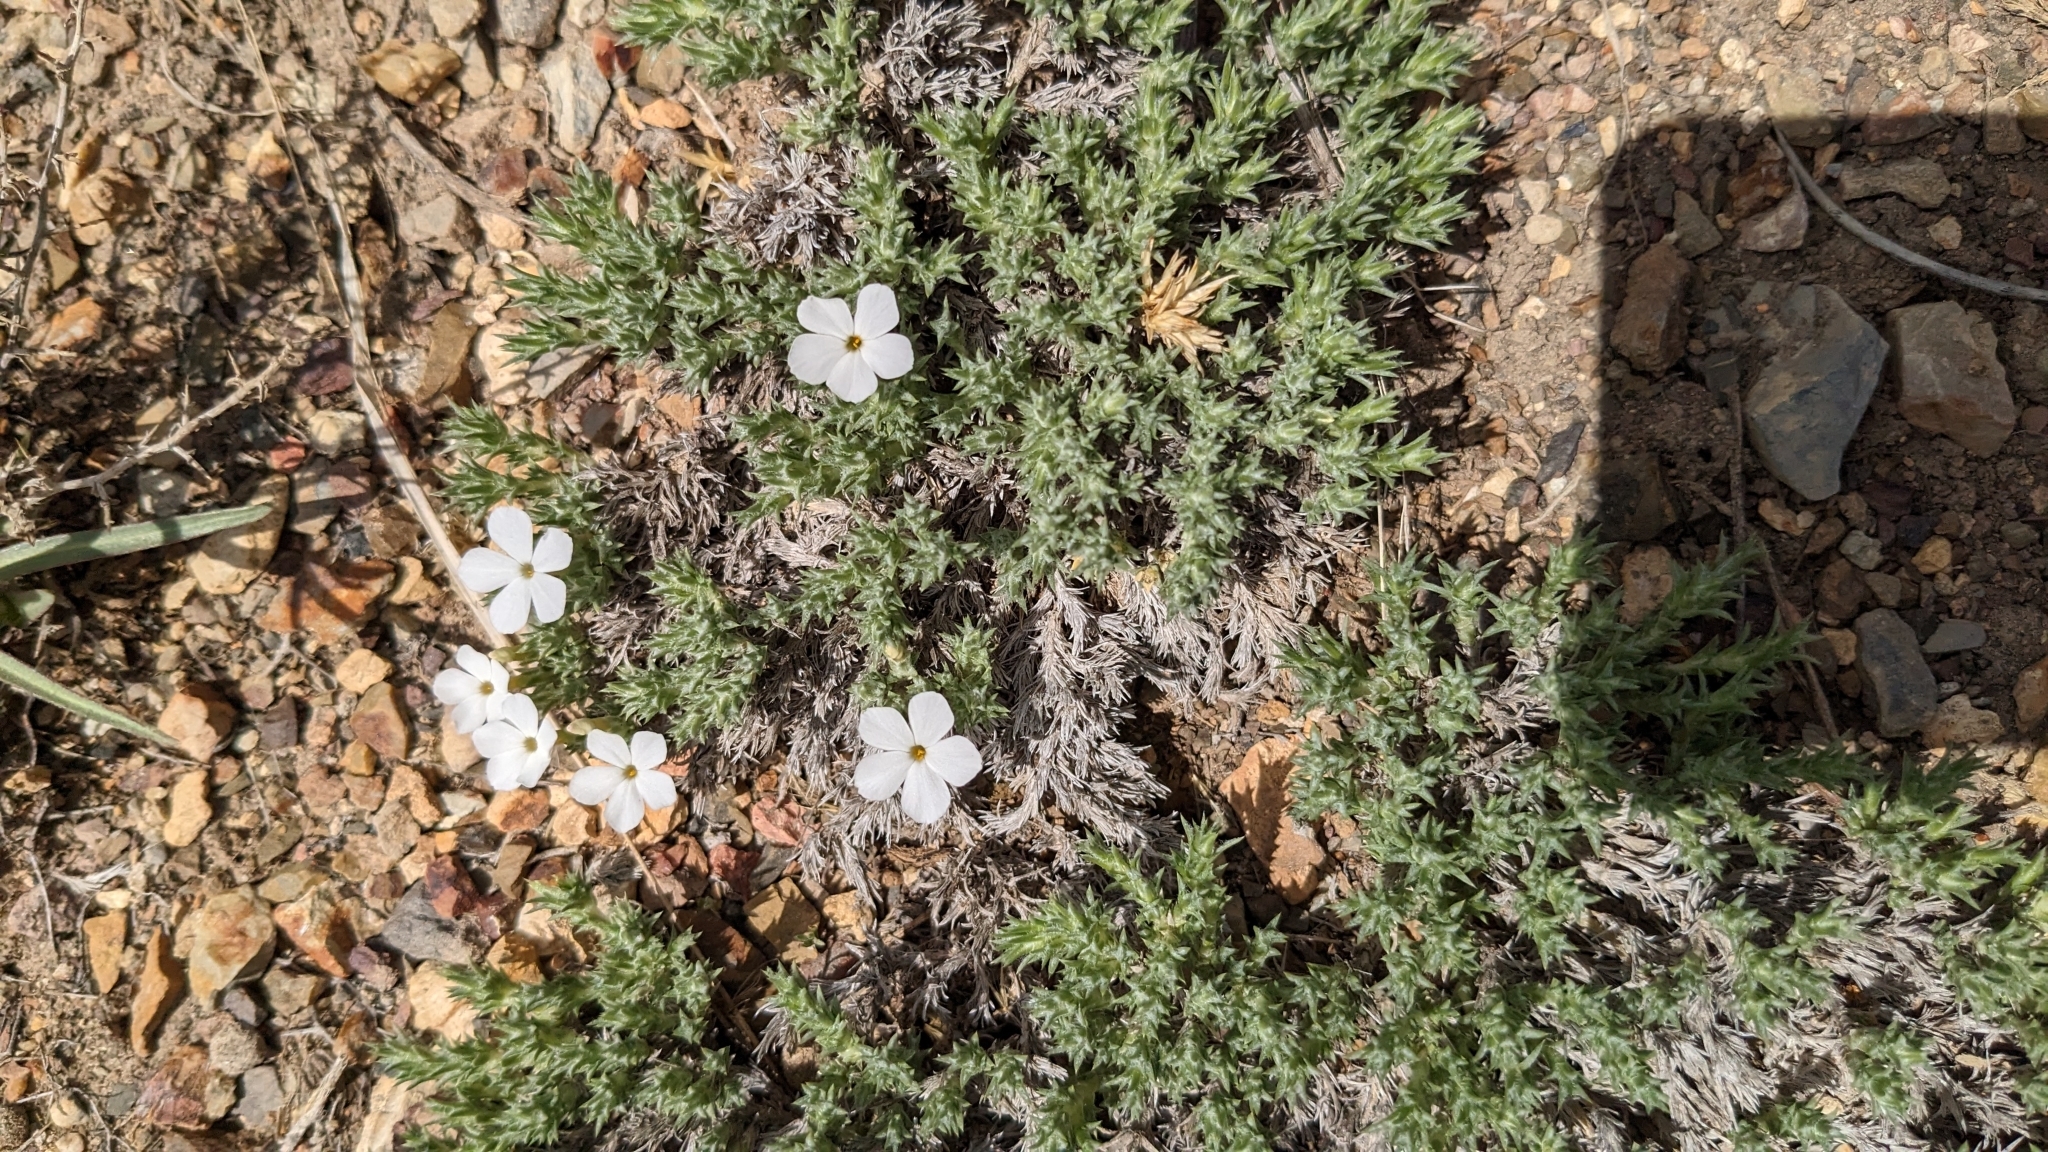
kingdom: Plantae
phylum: Tracheophyta
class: Magnoliopsida
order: Ericales
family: Polemoniaceae
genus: Phlox
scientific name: Phlox hoodii
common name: Moss phlox
